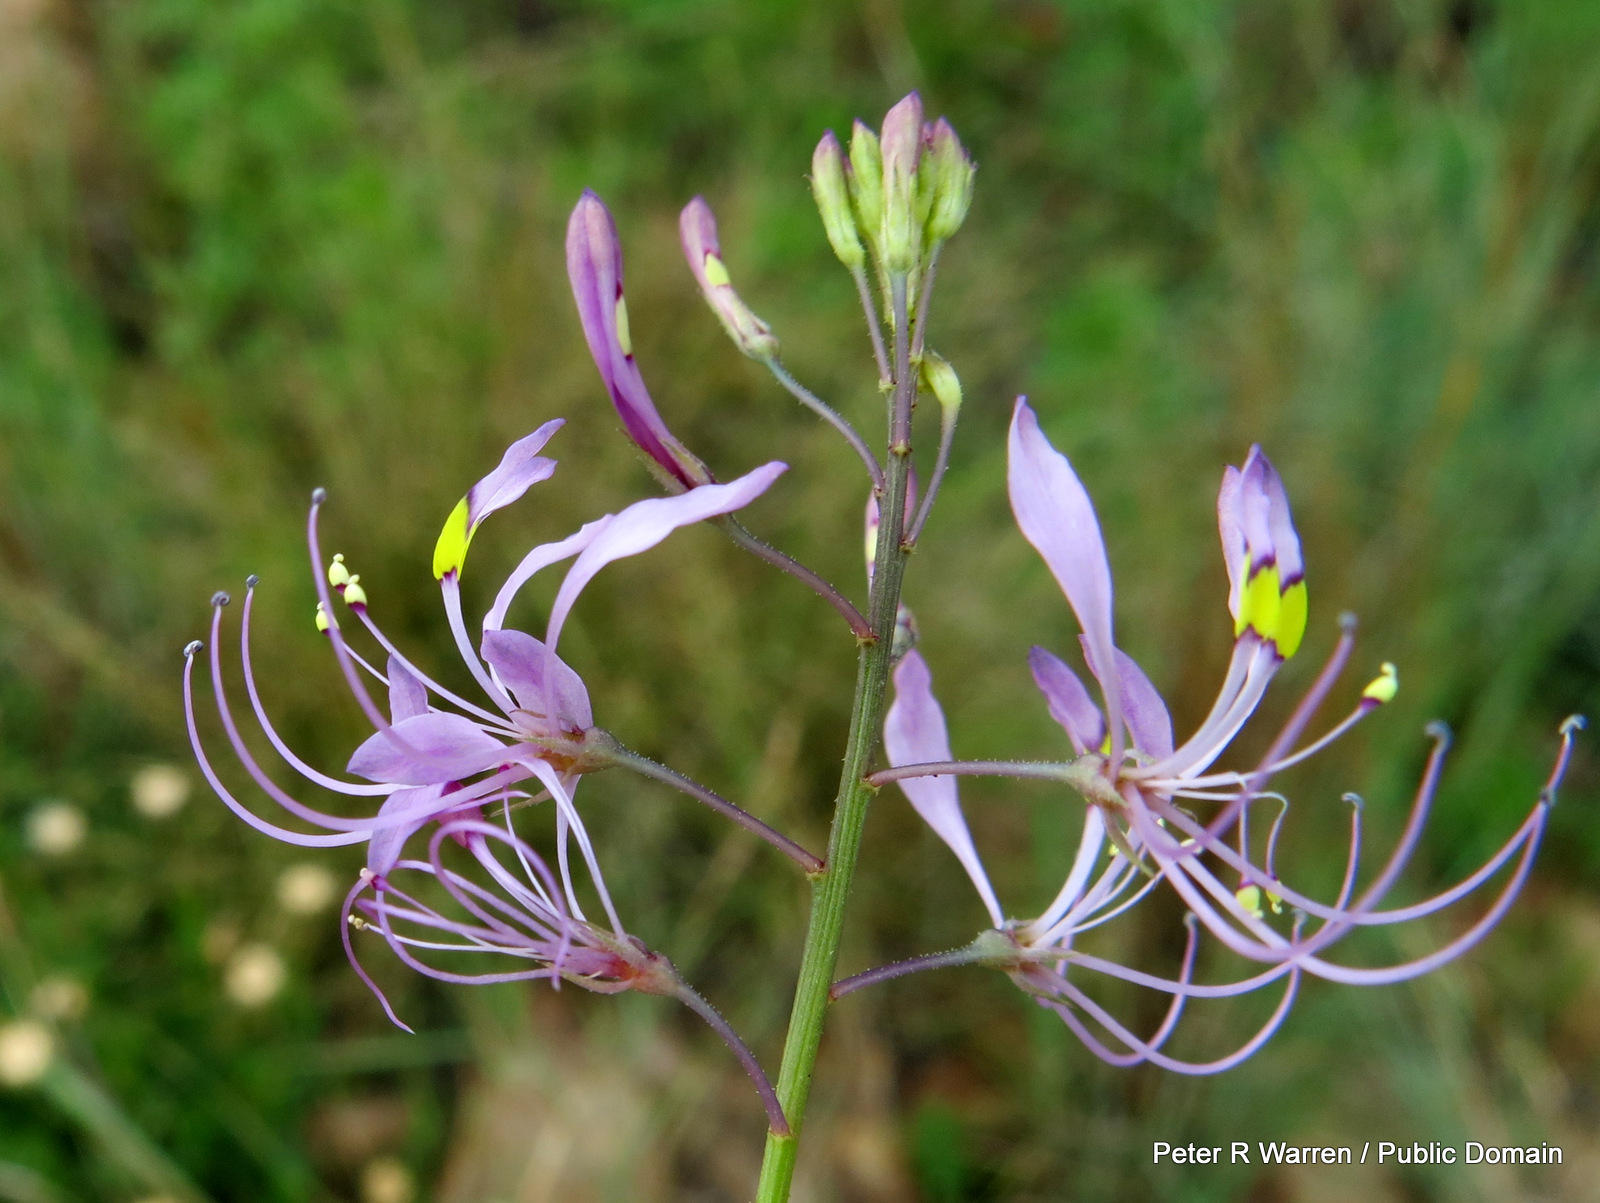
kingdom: Plantae
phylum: Tracheophyta
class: Magnoliopsida
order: Brassicales
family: Cleomaceae
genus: Sieruela
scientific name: Sieruela maculata
